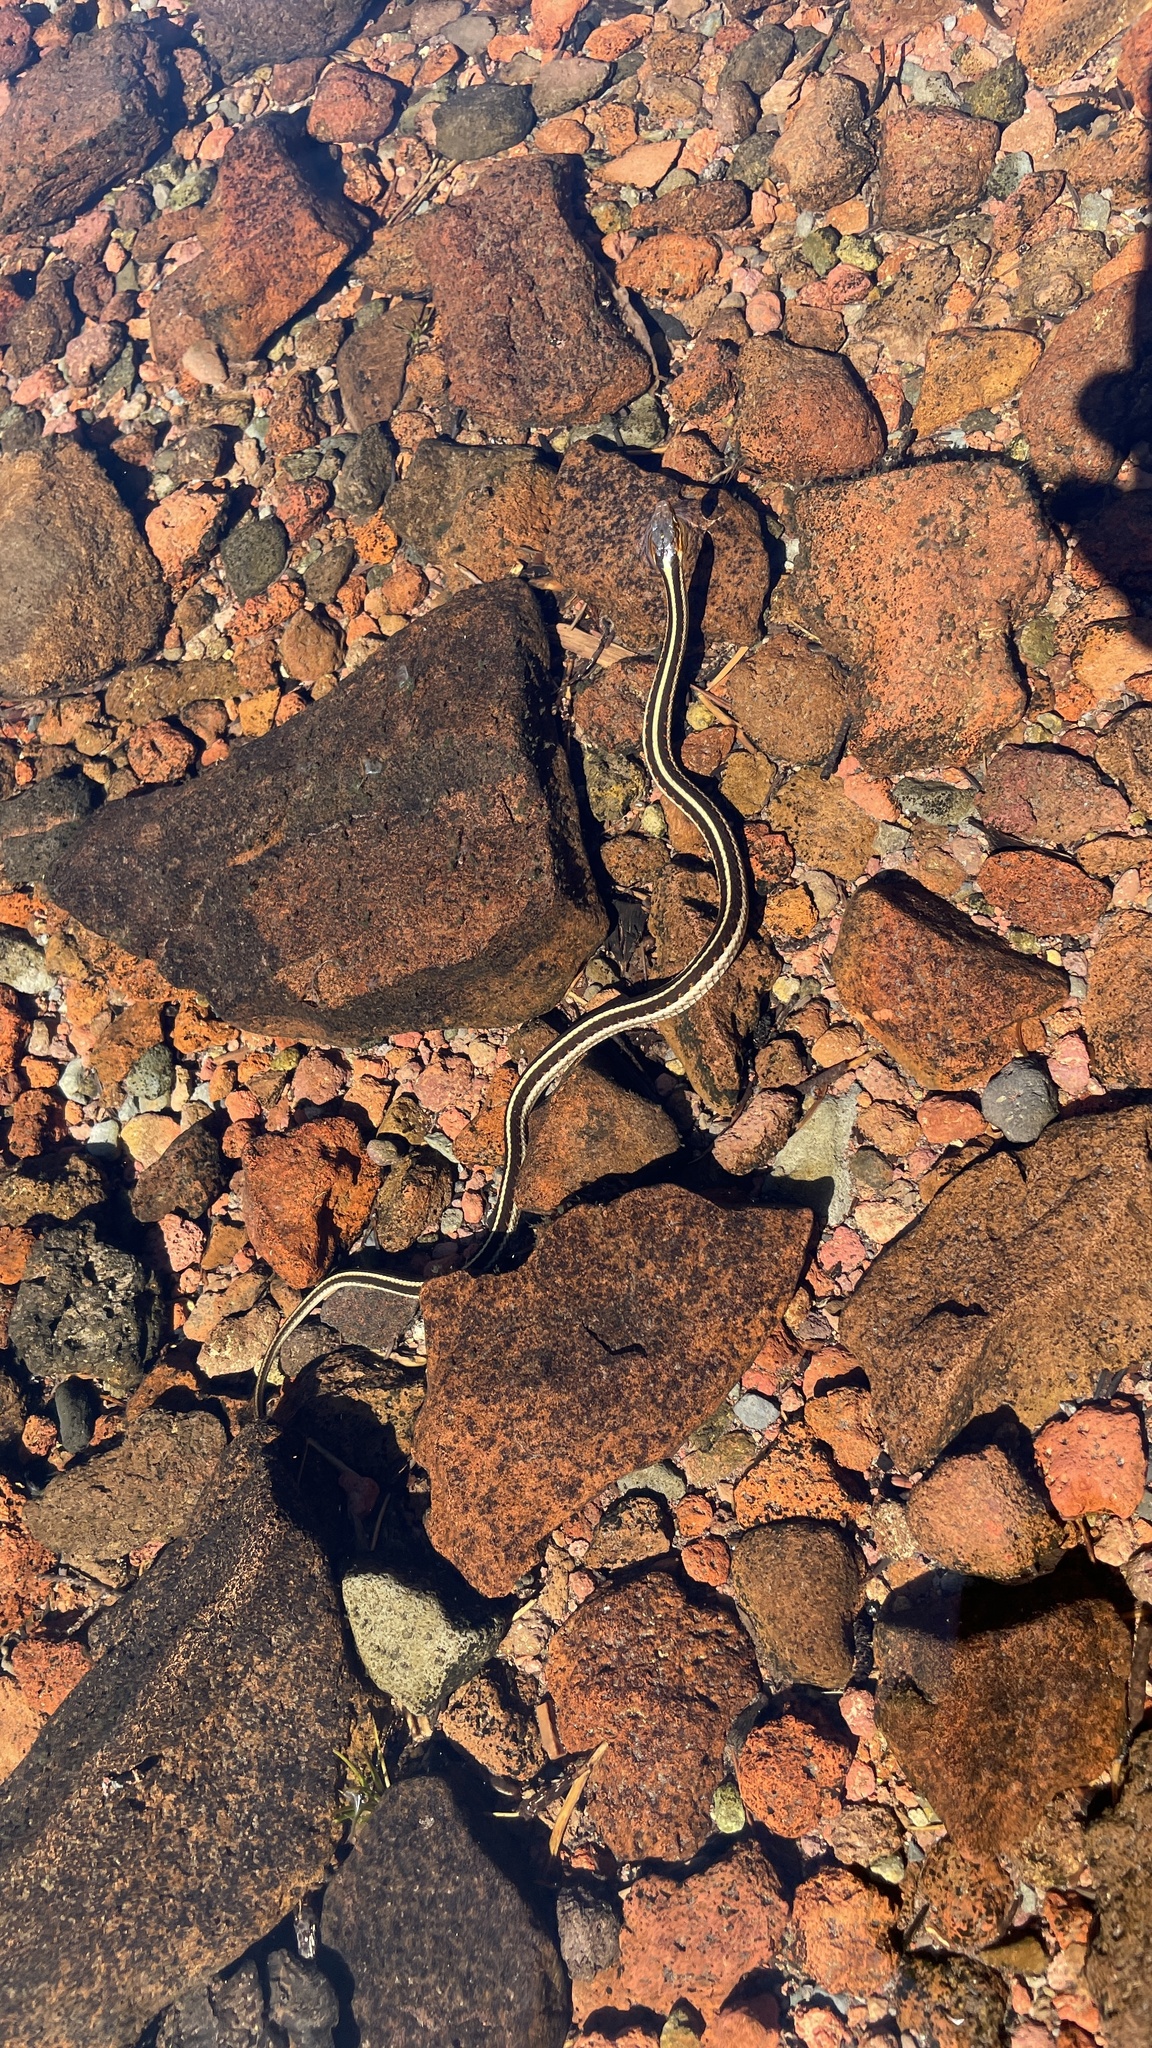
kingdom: Animalia
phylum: Chordata
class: Squamata
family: Colubridae
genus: Thamnophis
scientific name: Thamnophis sirtalis
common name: Common garter snake
